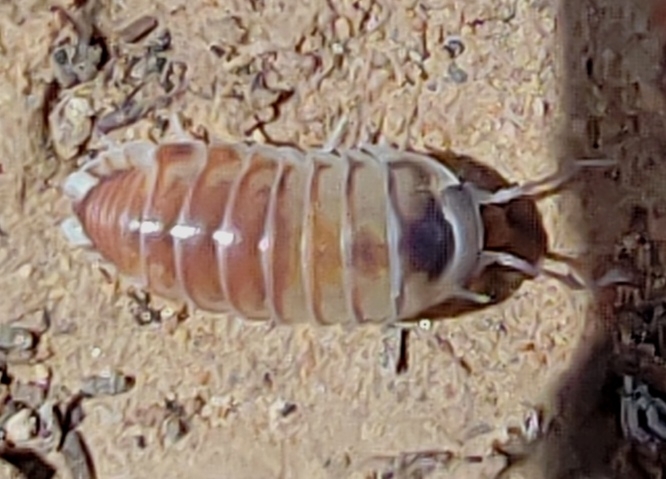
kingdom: Animalia
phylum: Arthropoda
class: Malacostraca
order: Isopoda
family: Eubelidae
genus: Periscyphis
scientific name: Periscyphis omanensis
